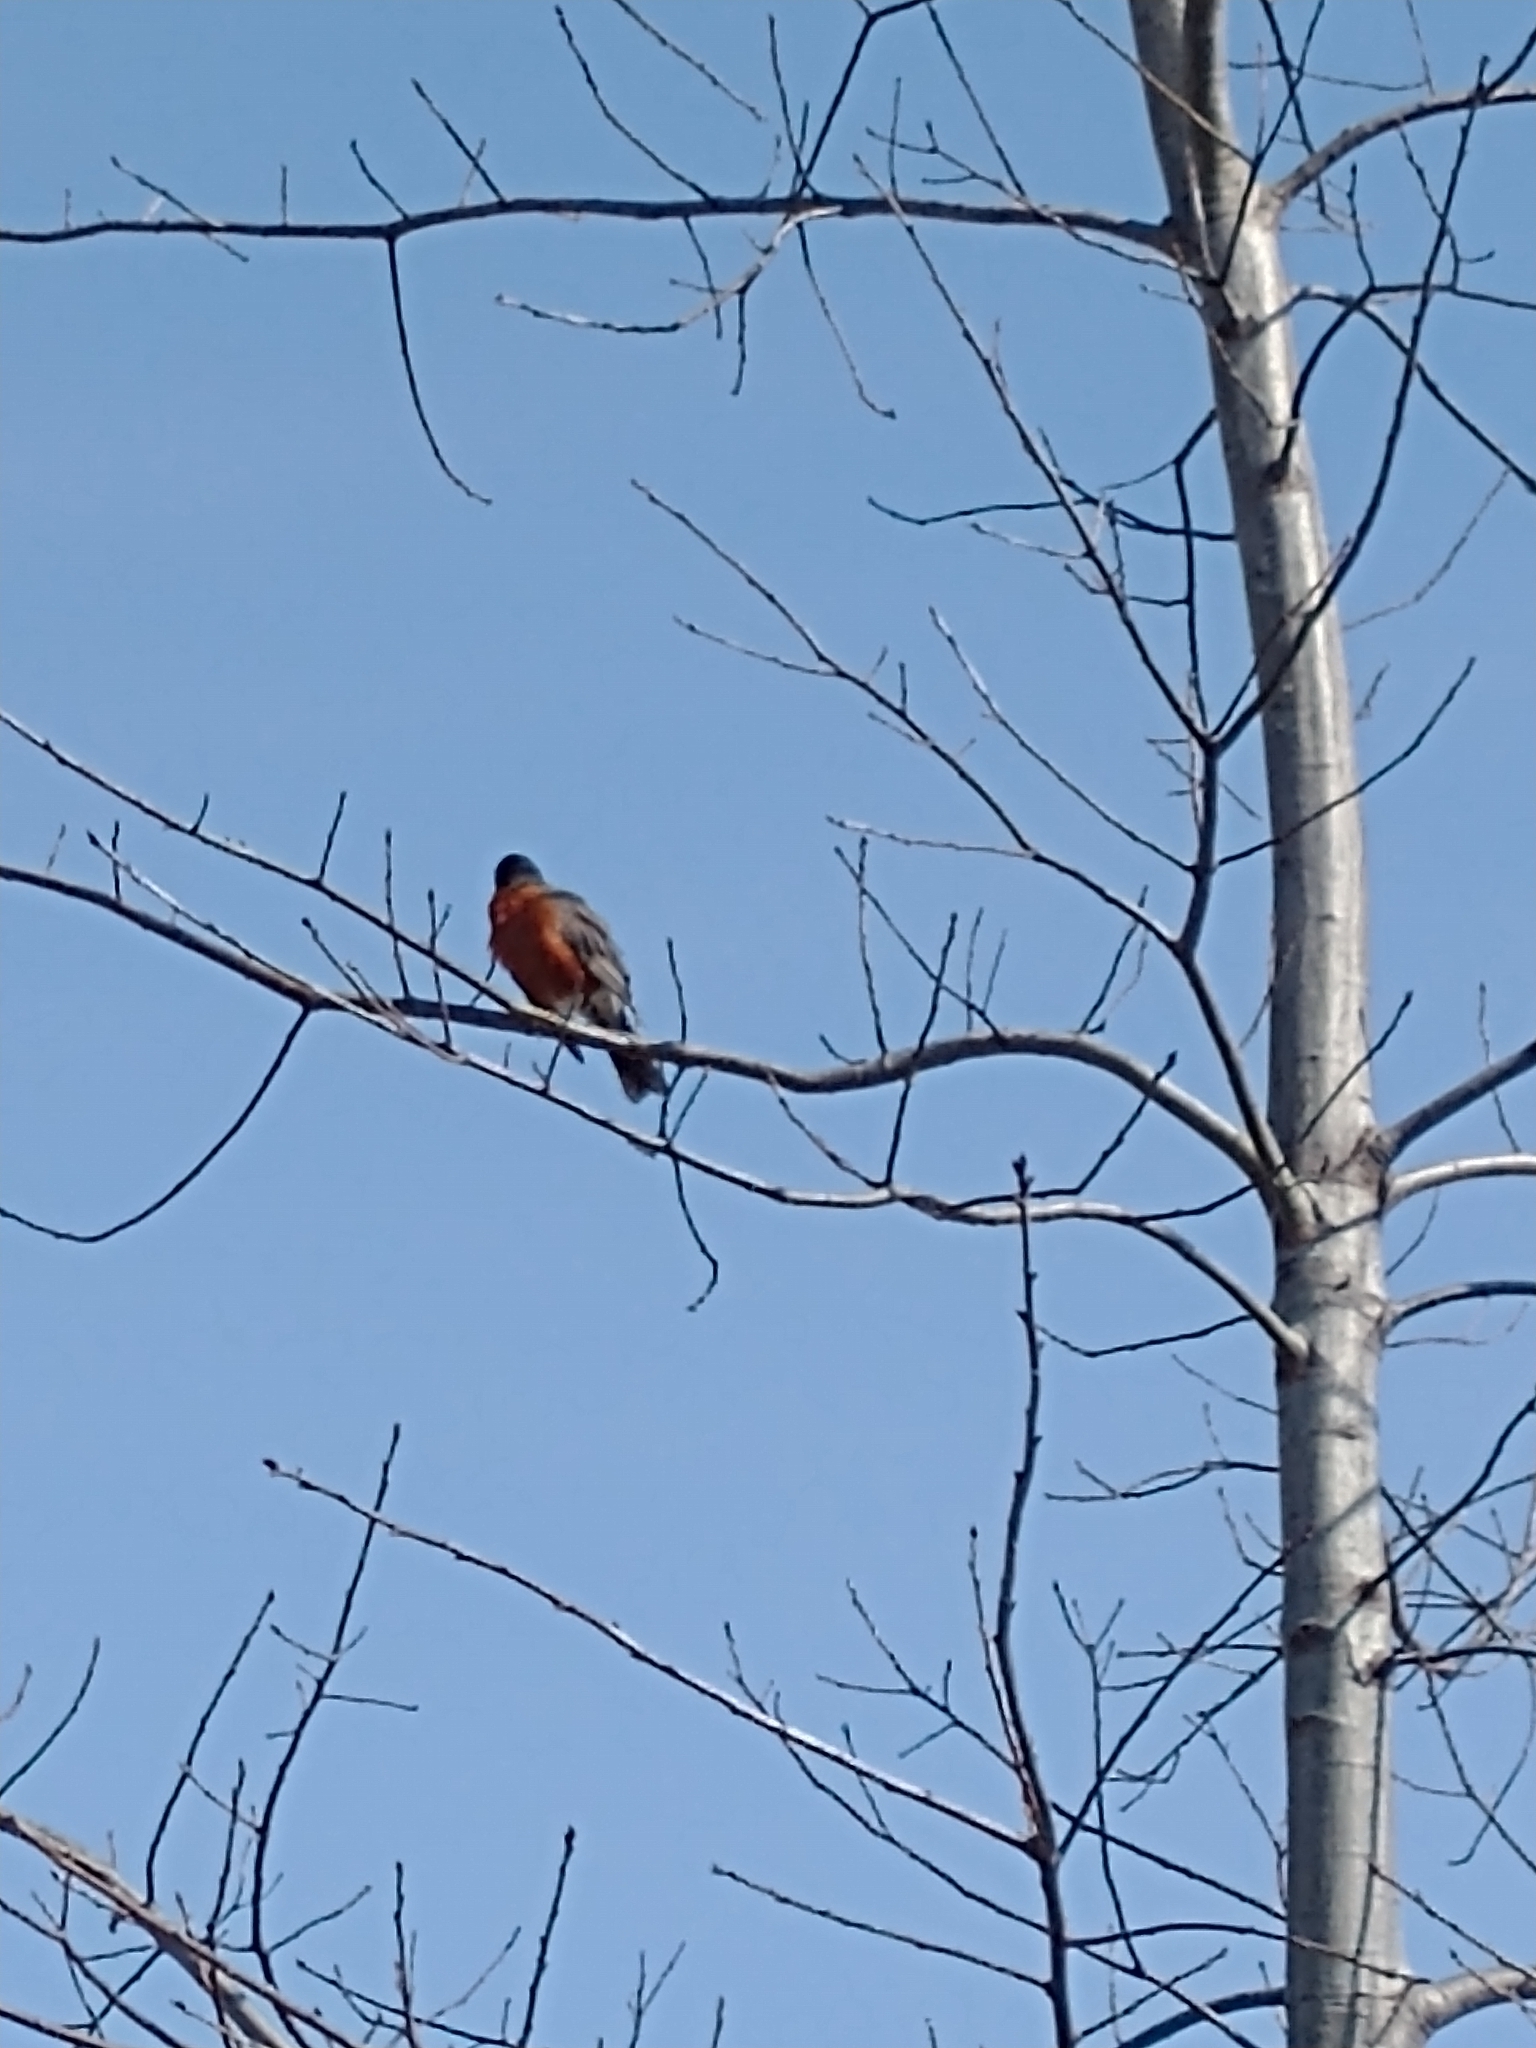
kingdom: Animalia
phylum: Chordata
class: Aves
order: Passeriformes
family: Turdidae
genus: Turdus
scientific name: Turdus migratorius
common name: American robin
